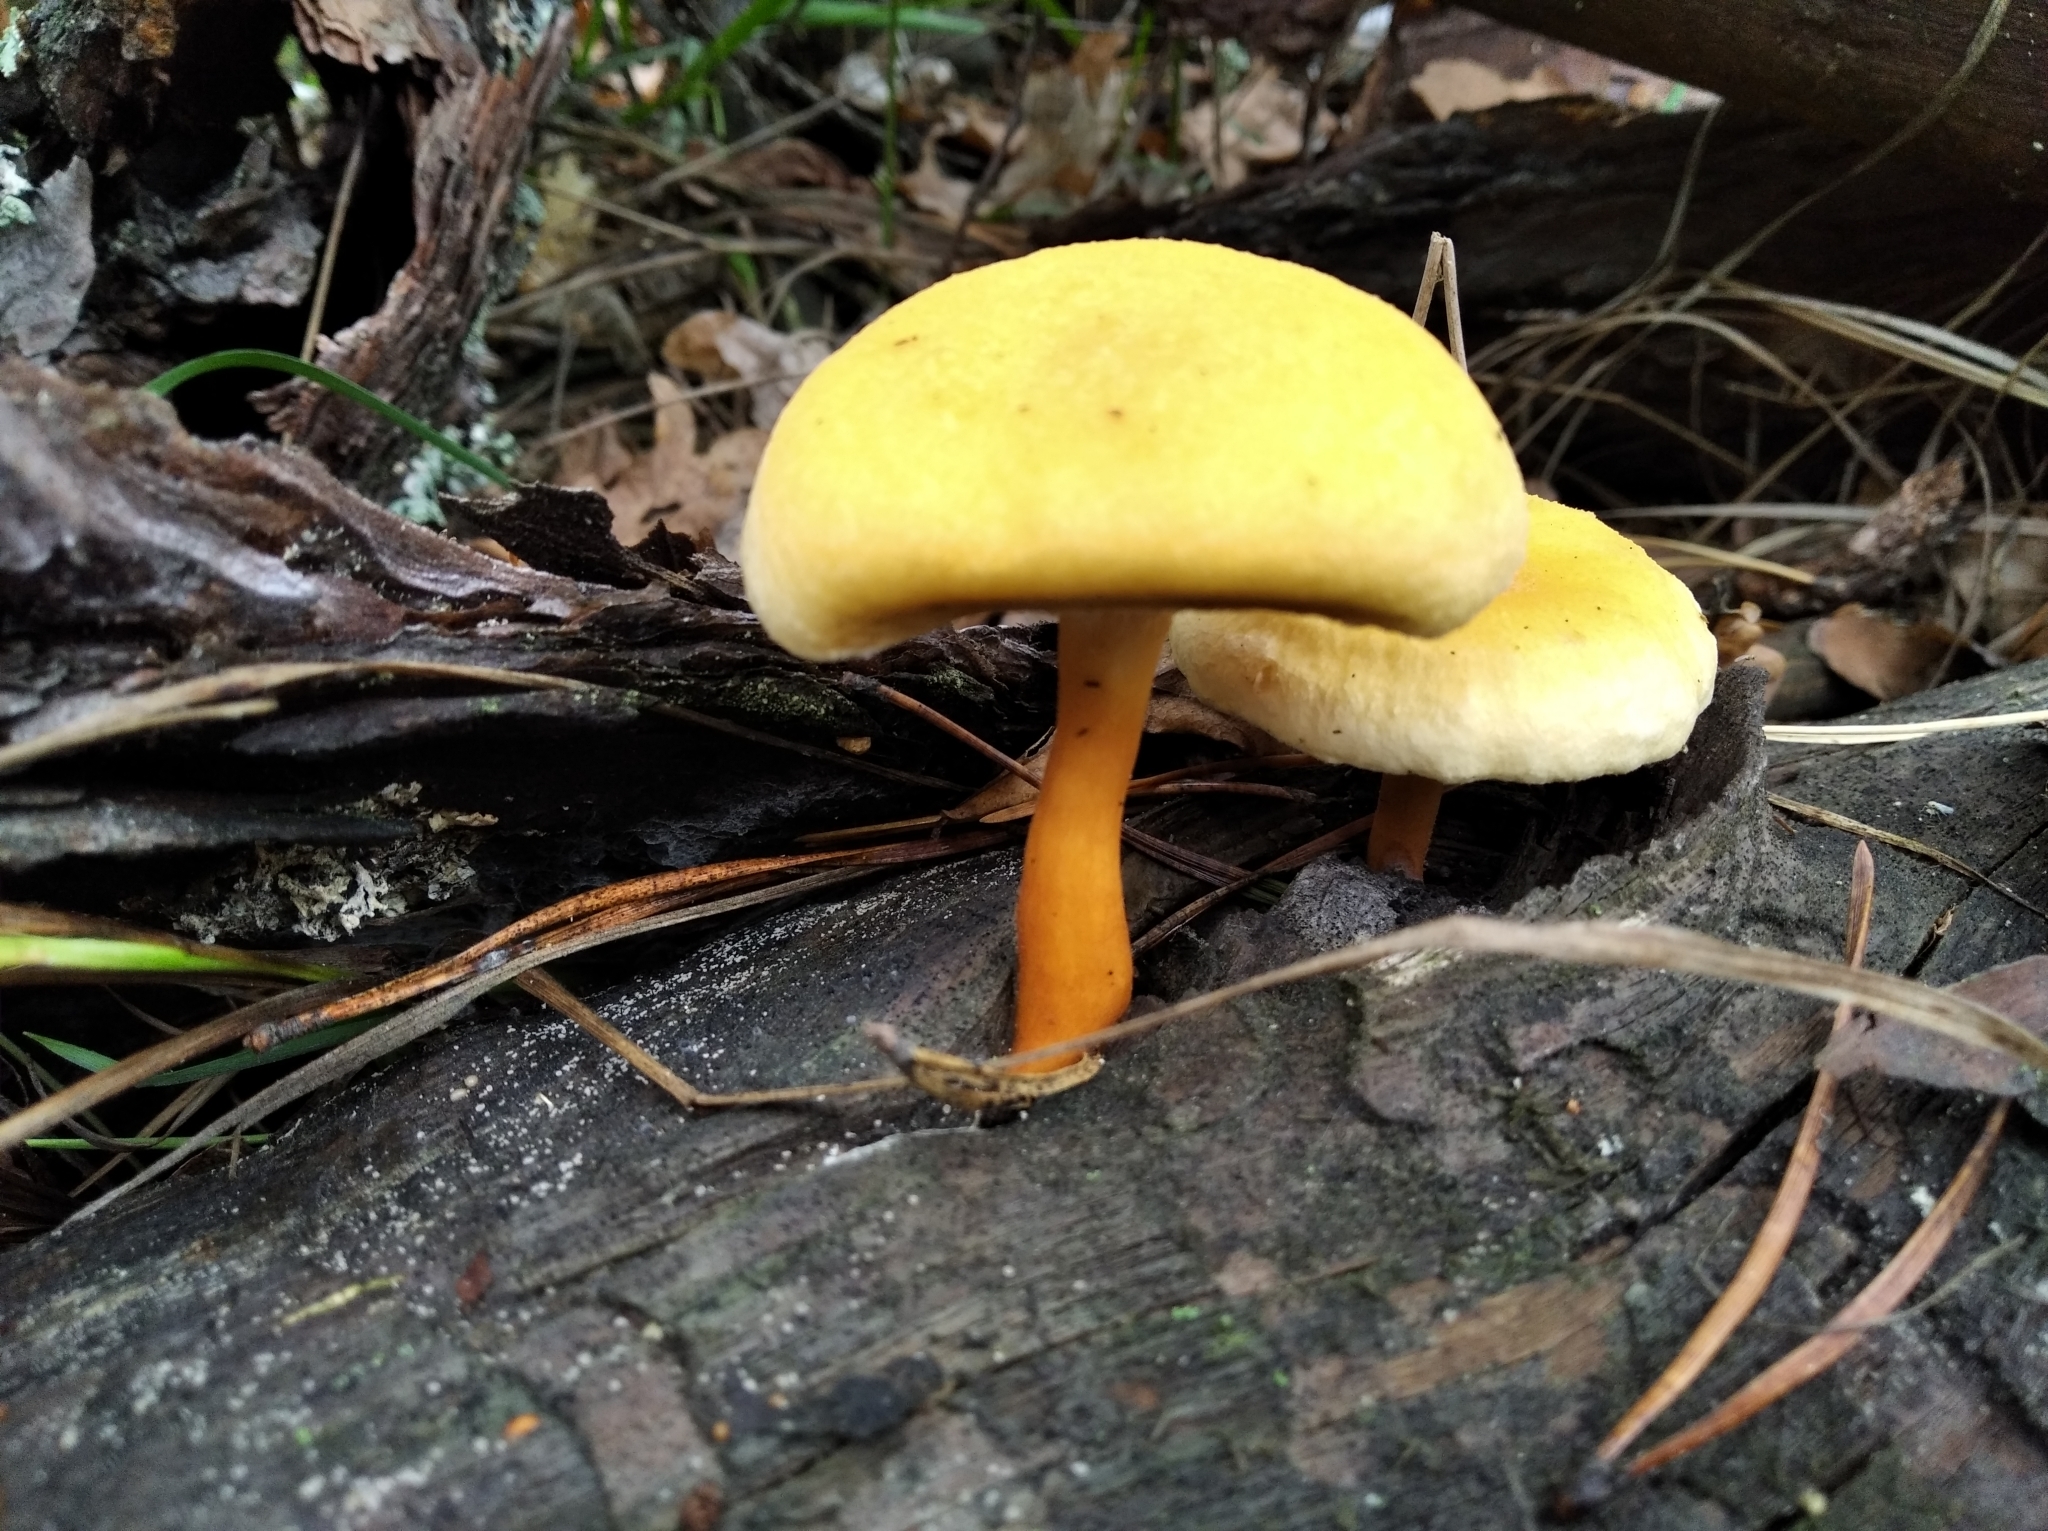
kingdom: Fungi
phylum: Basidiomycota
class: Agaricomycetes
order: Boletales
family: Hygrophoropsidaceae
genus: Hygrophoropsis
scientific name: Hygrophoropsis aurantiaca
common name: False chanterelle
